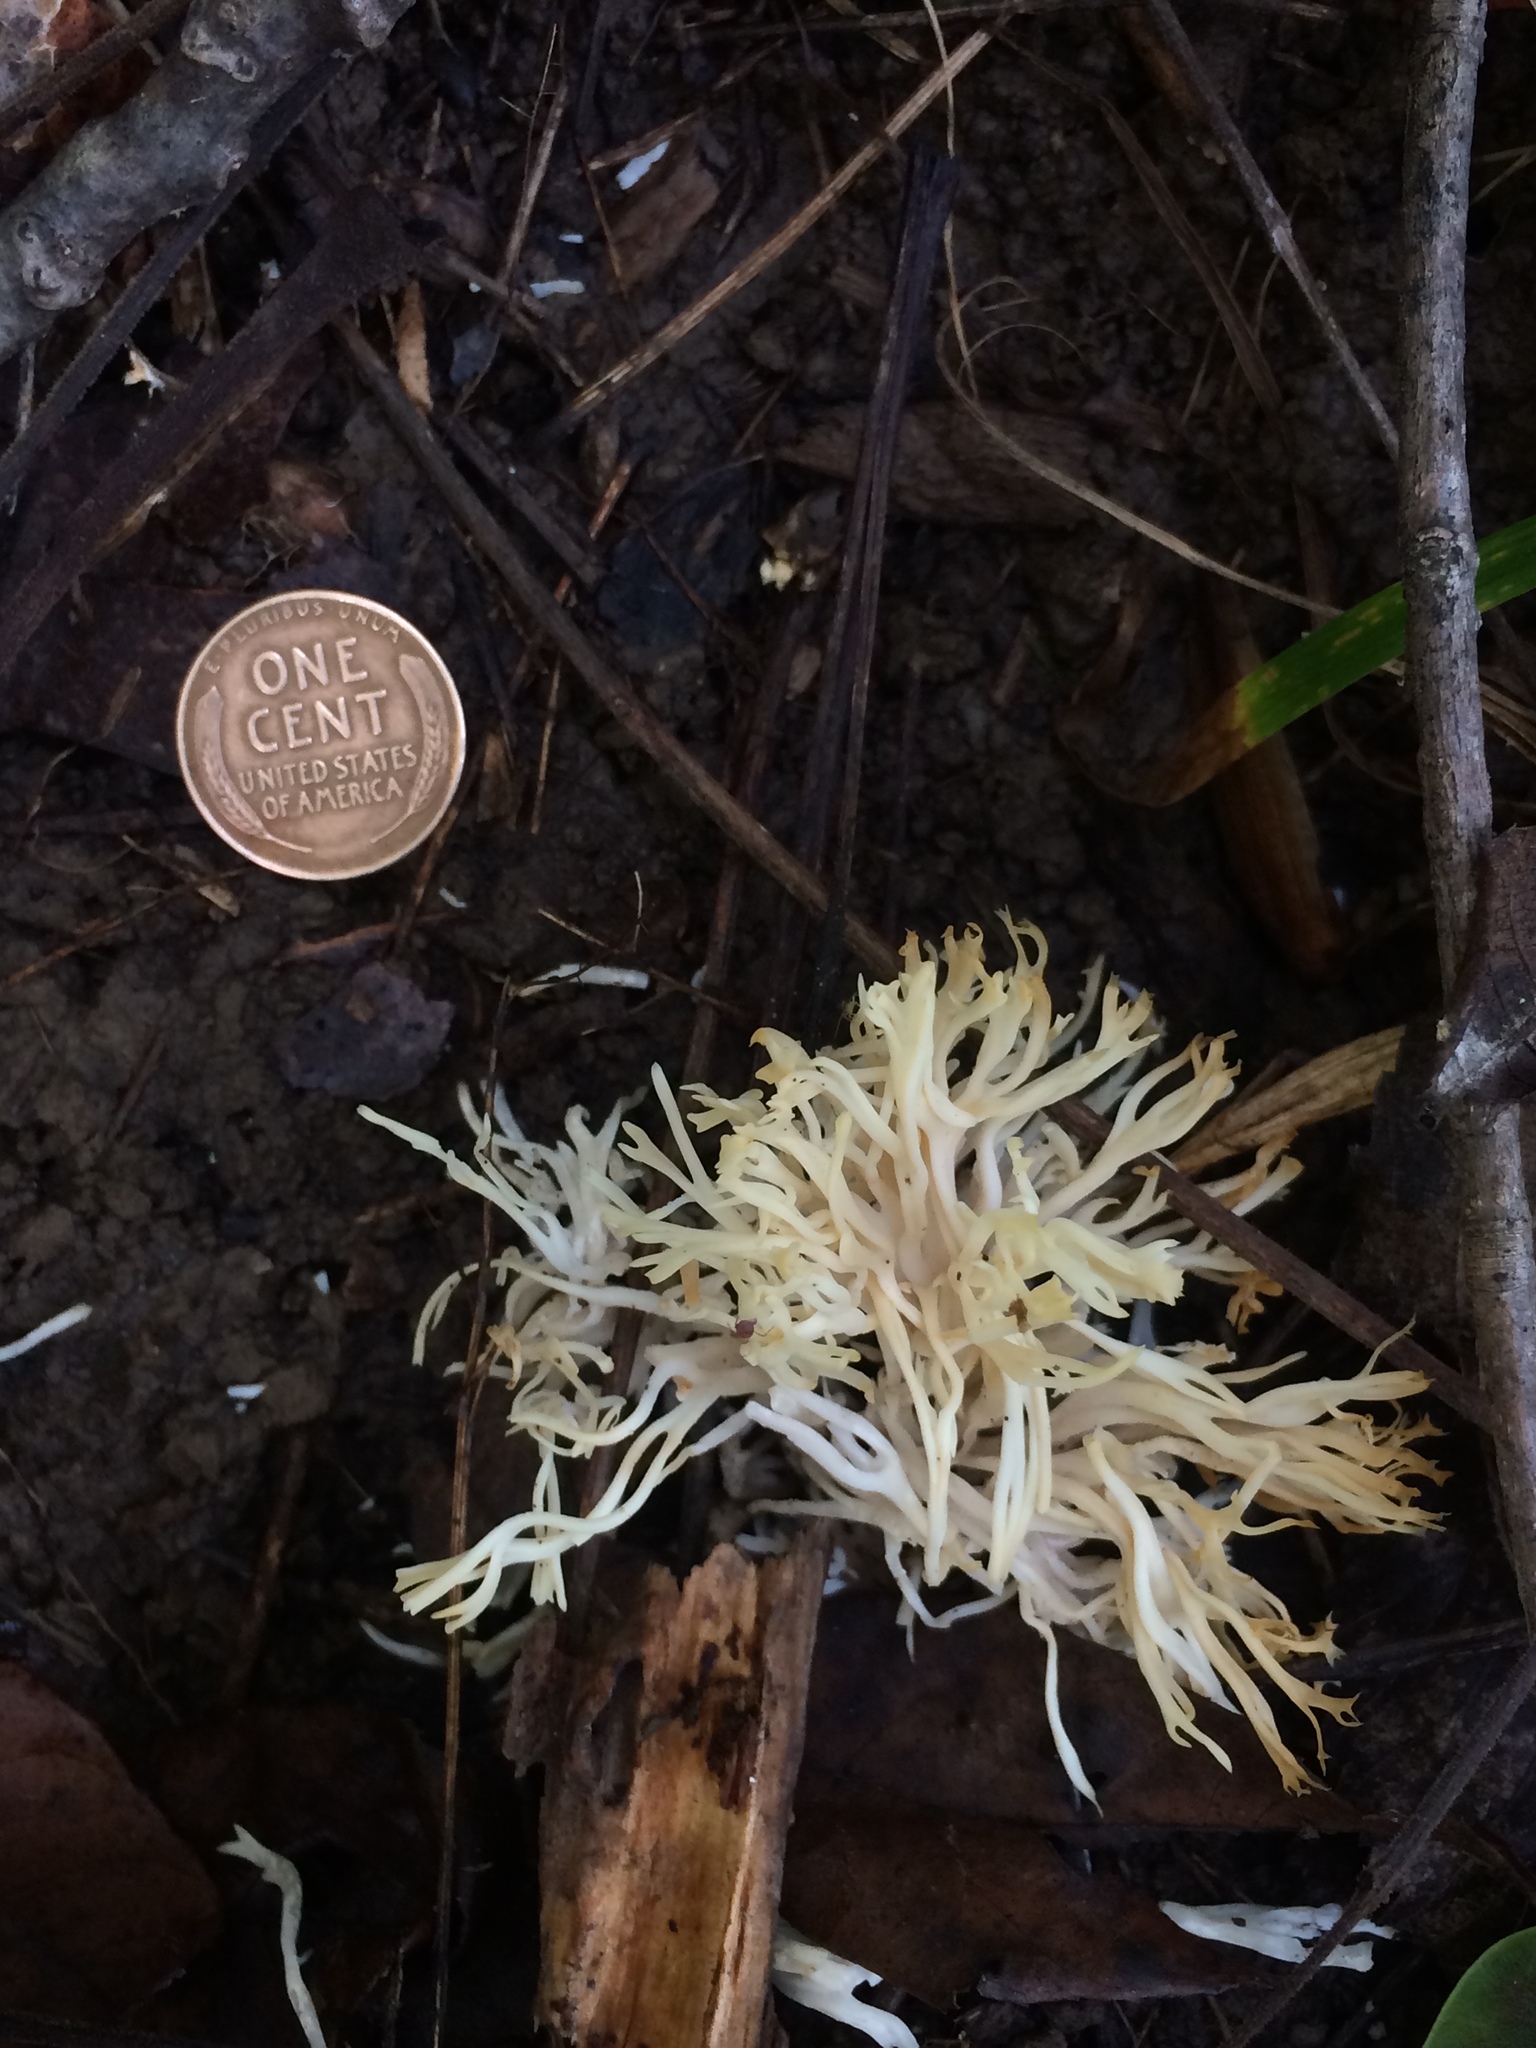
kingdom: Fungi
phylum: Basidiomycota
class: Agaricomycetes
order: Agaricales
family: Clavariaceae
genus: Ramariopsis
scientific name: Ramariopsis kunzei
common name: Ivory coral
